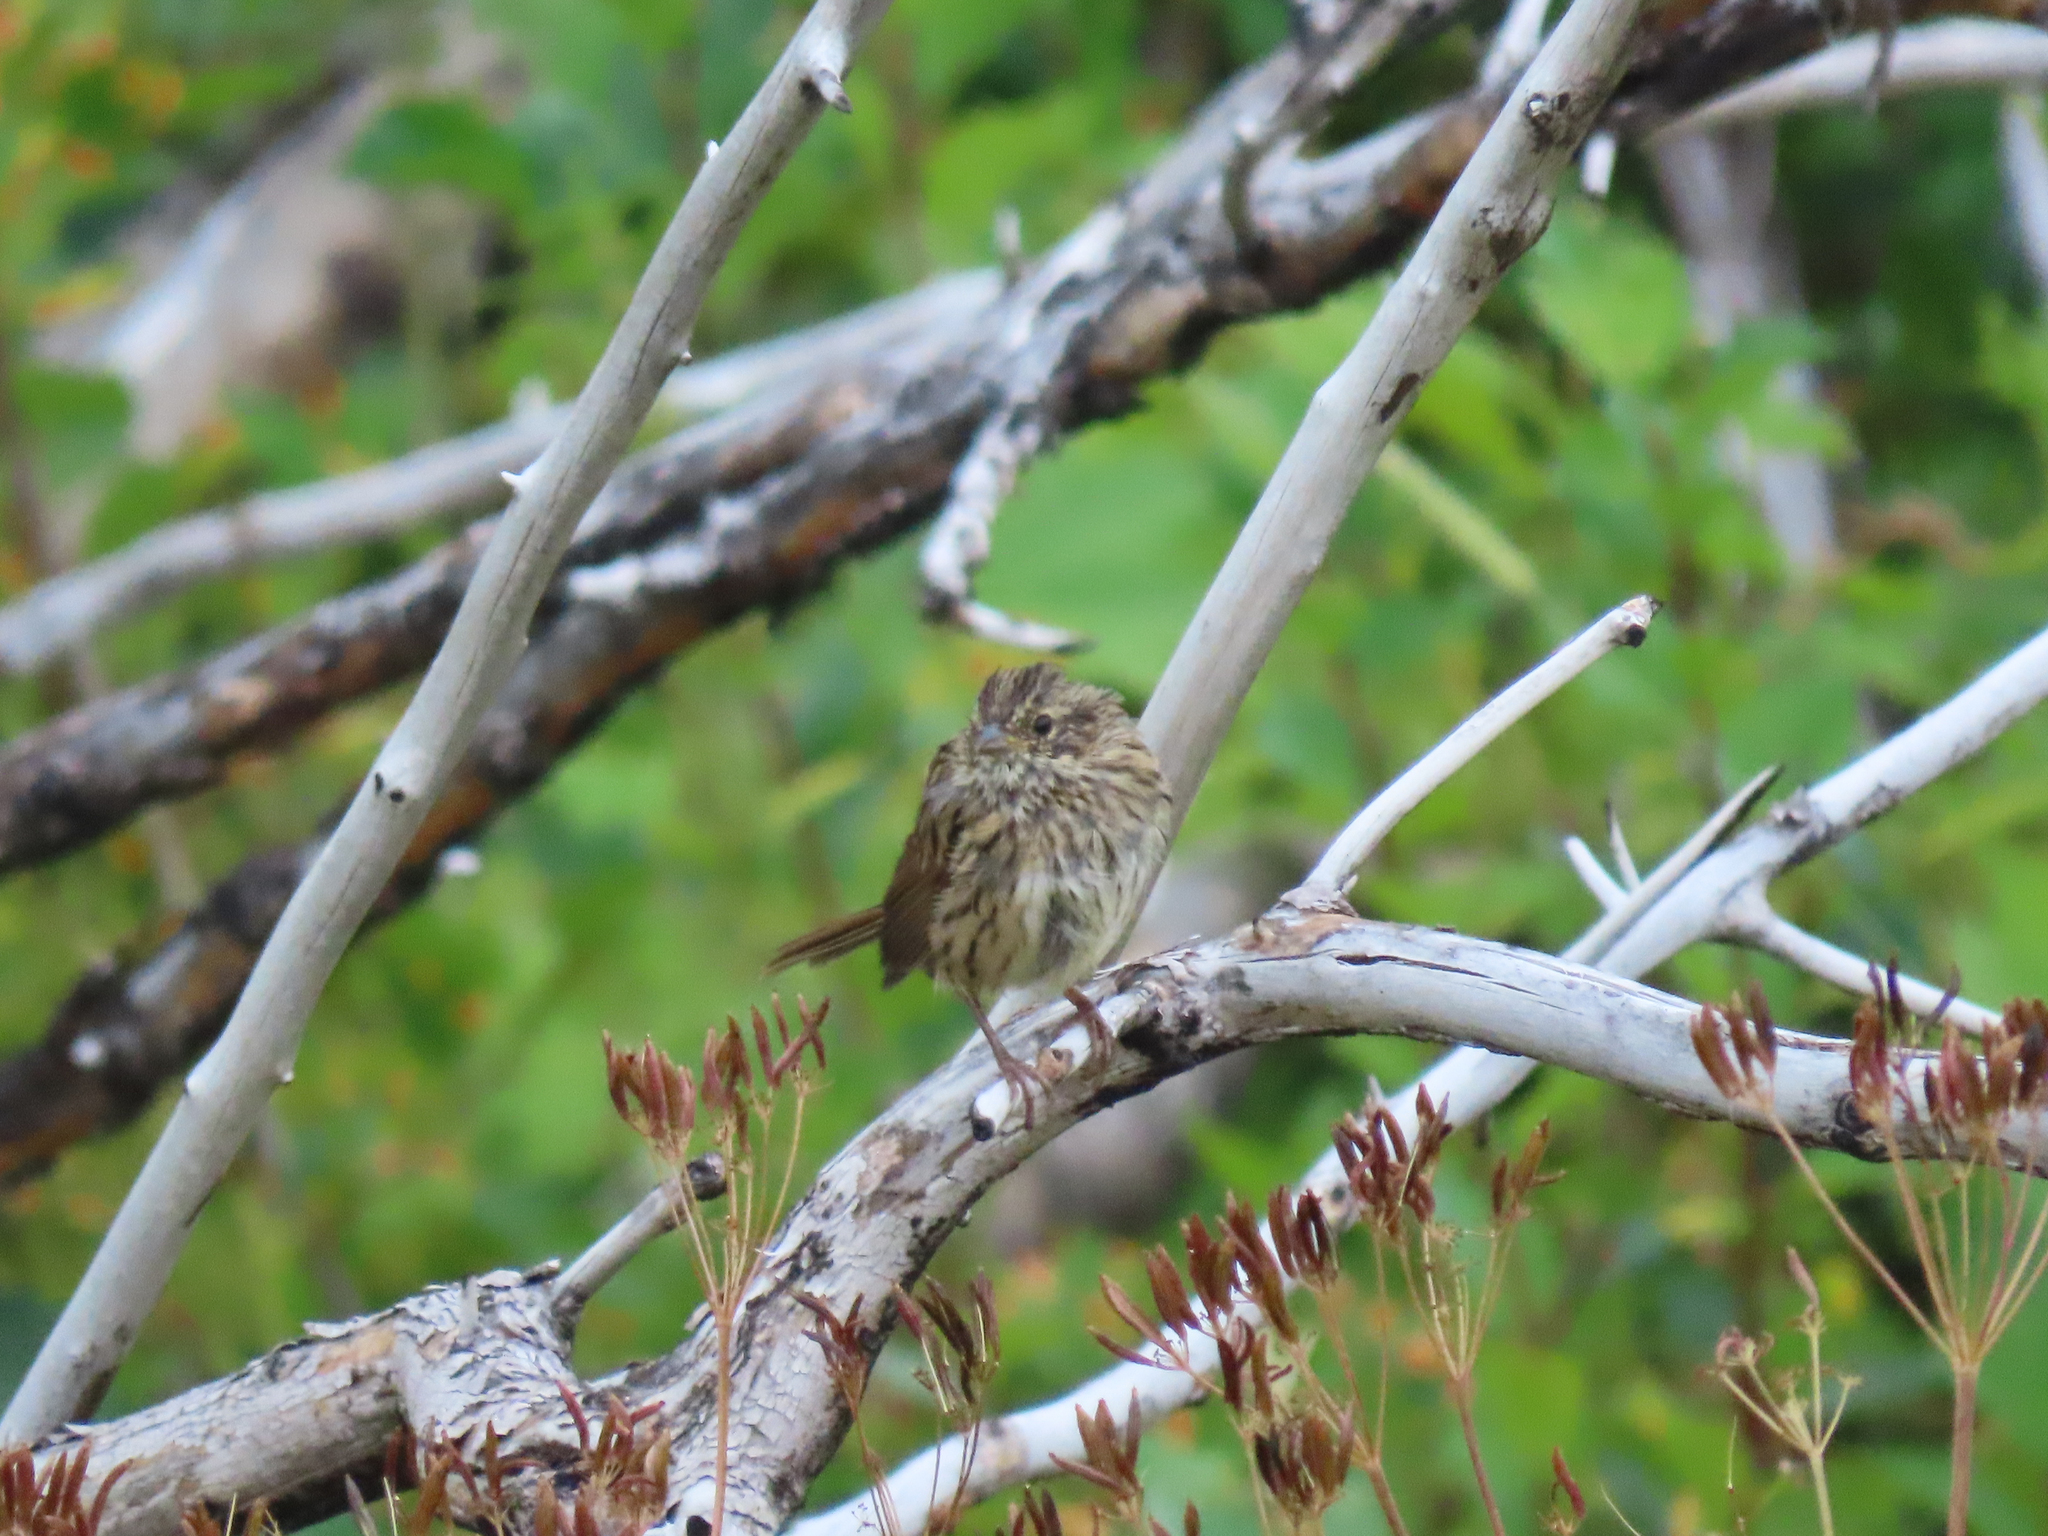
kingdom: Animalia
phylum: Chordata
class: Aves
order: Passeriformes
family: Passerellidae
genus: Melospiza
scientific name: Melospiza lincolnii
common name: Lincoln's sparrow
